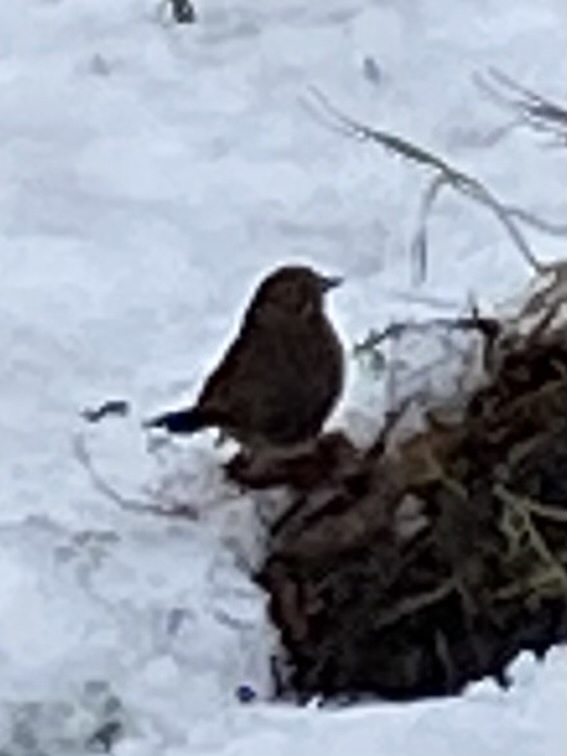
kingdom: Animalia
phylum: Chordata
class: Aves
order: Passeriformes
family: Passerellidae
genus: Melospiza
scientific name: Melospiza melodia
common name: Song sparrow
